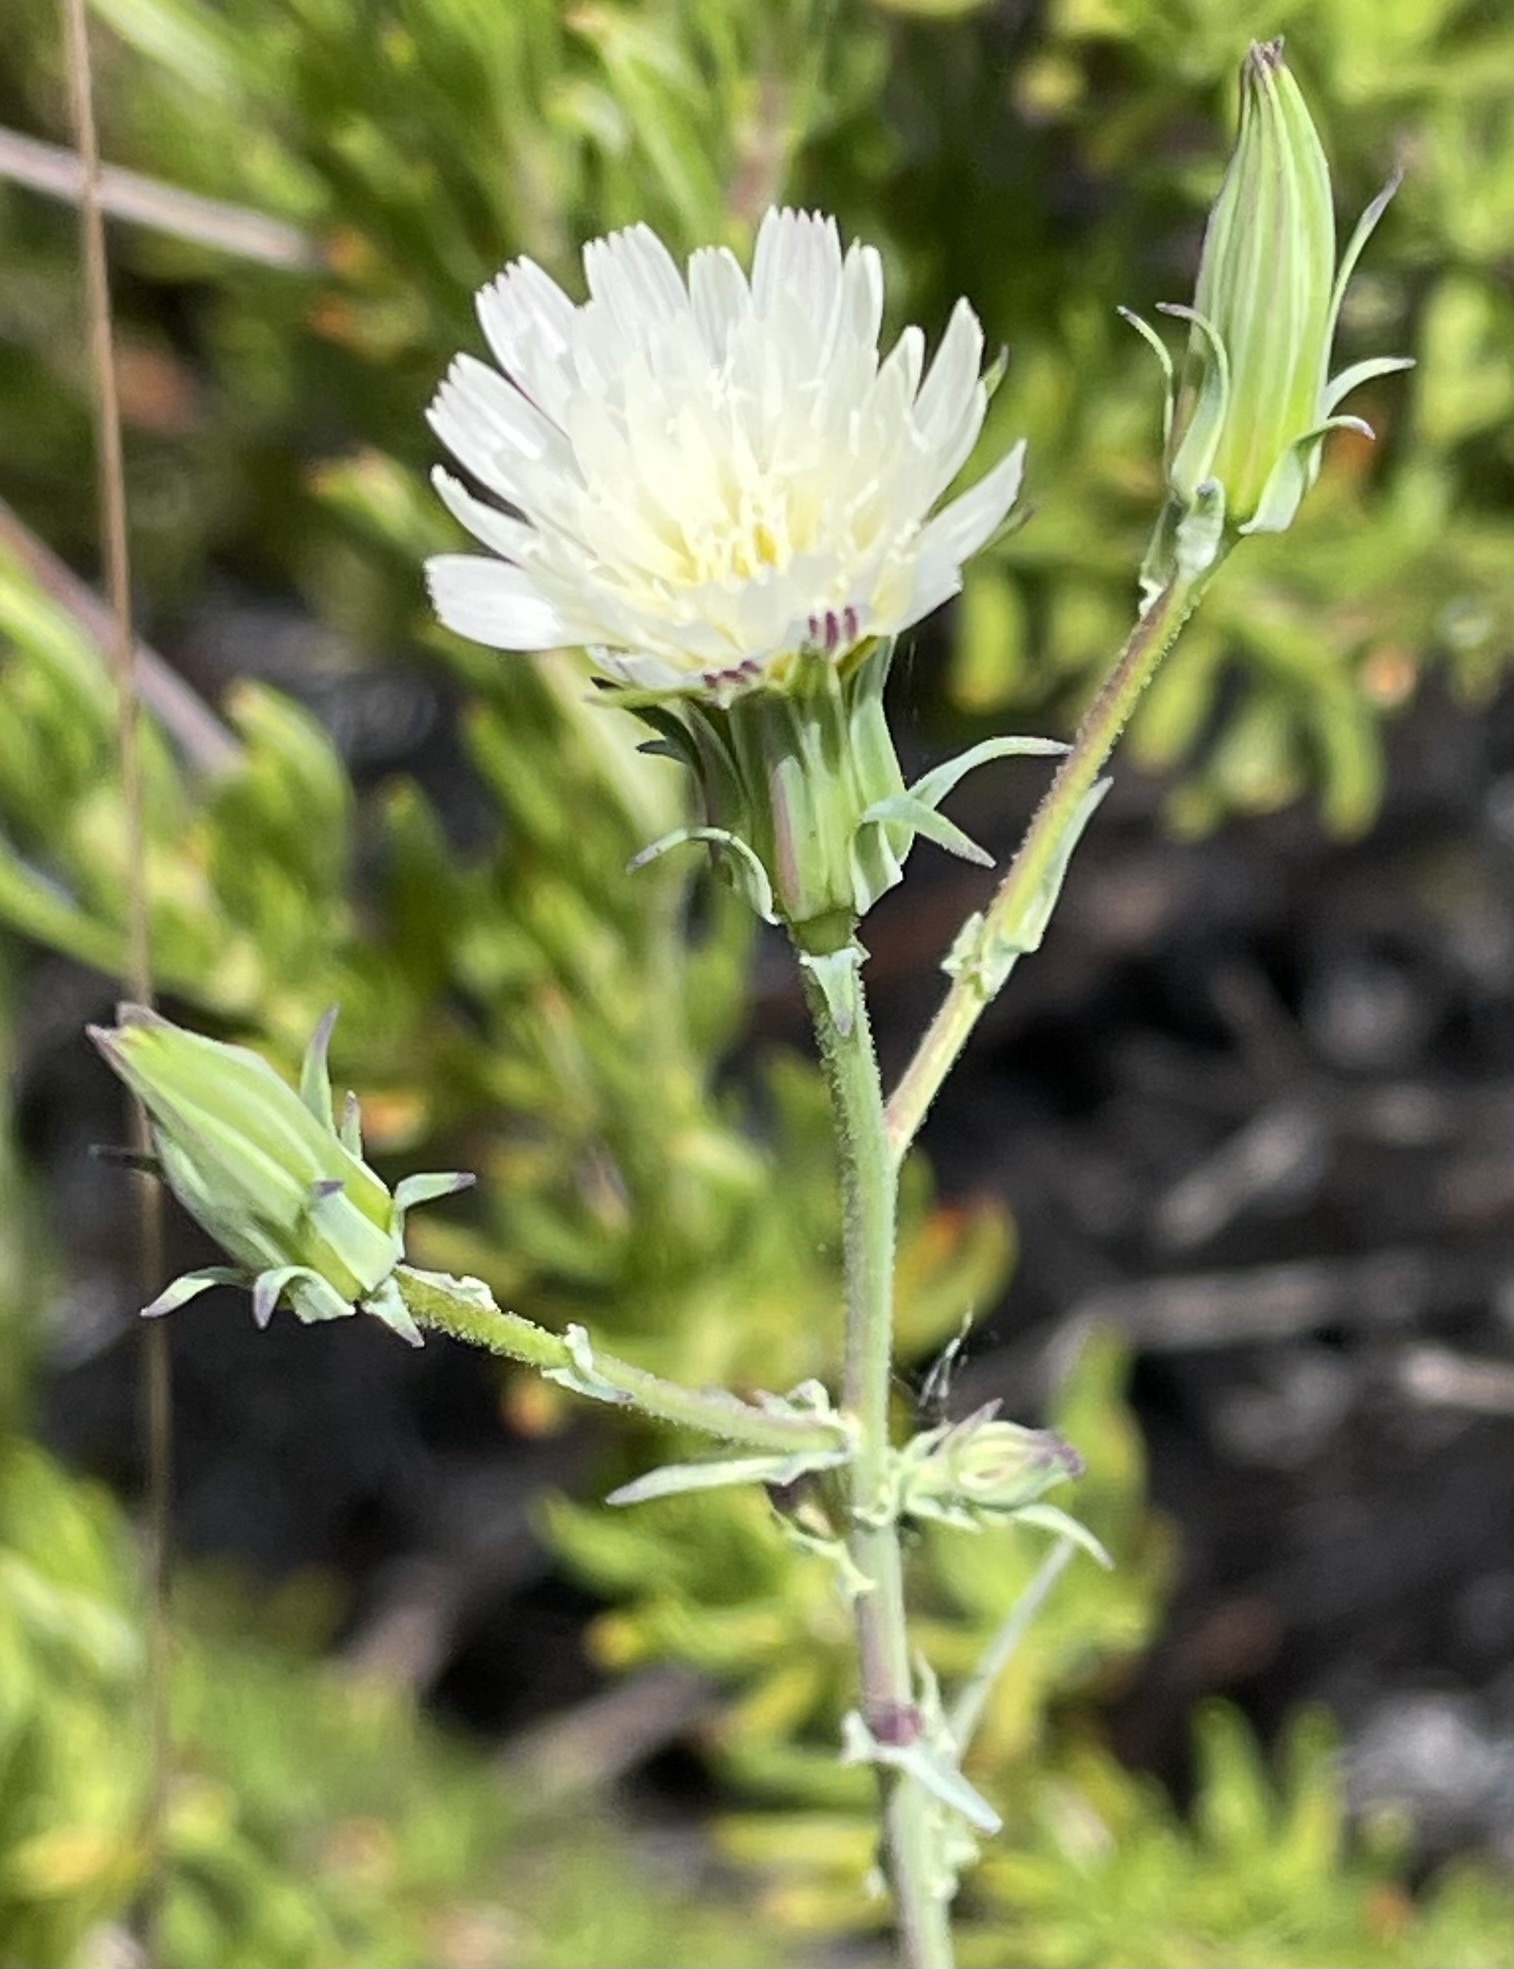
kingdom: Plantae
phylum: Tracheophyta
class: Magnoliopsida
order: Asterales
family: Asteraceae
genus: Rafinesquia
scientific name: Rafinesquia californica
